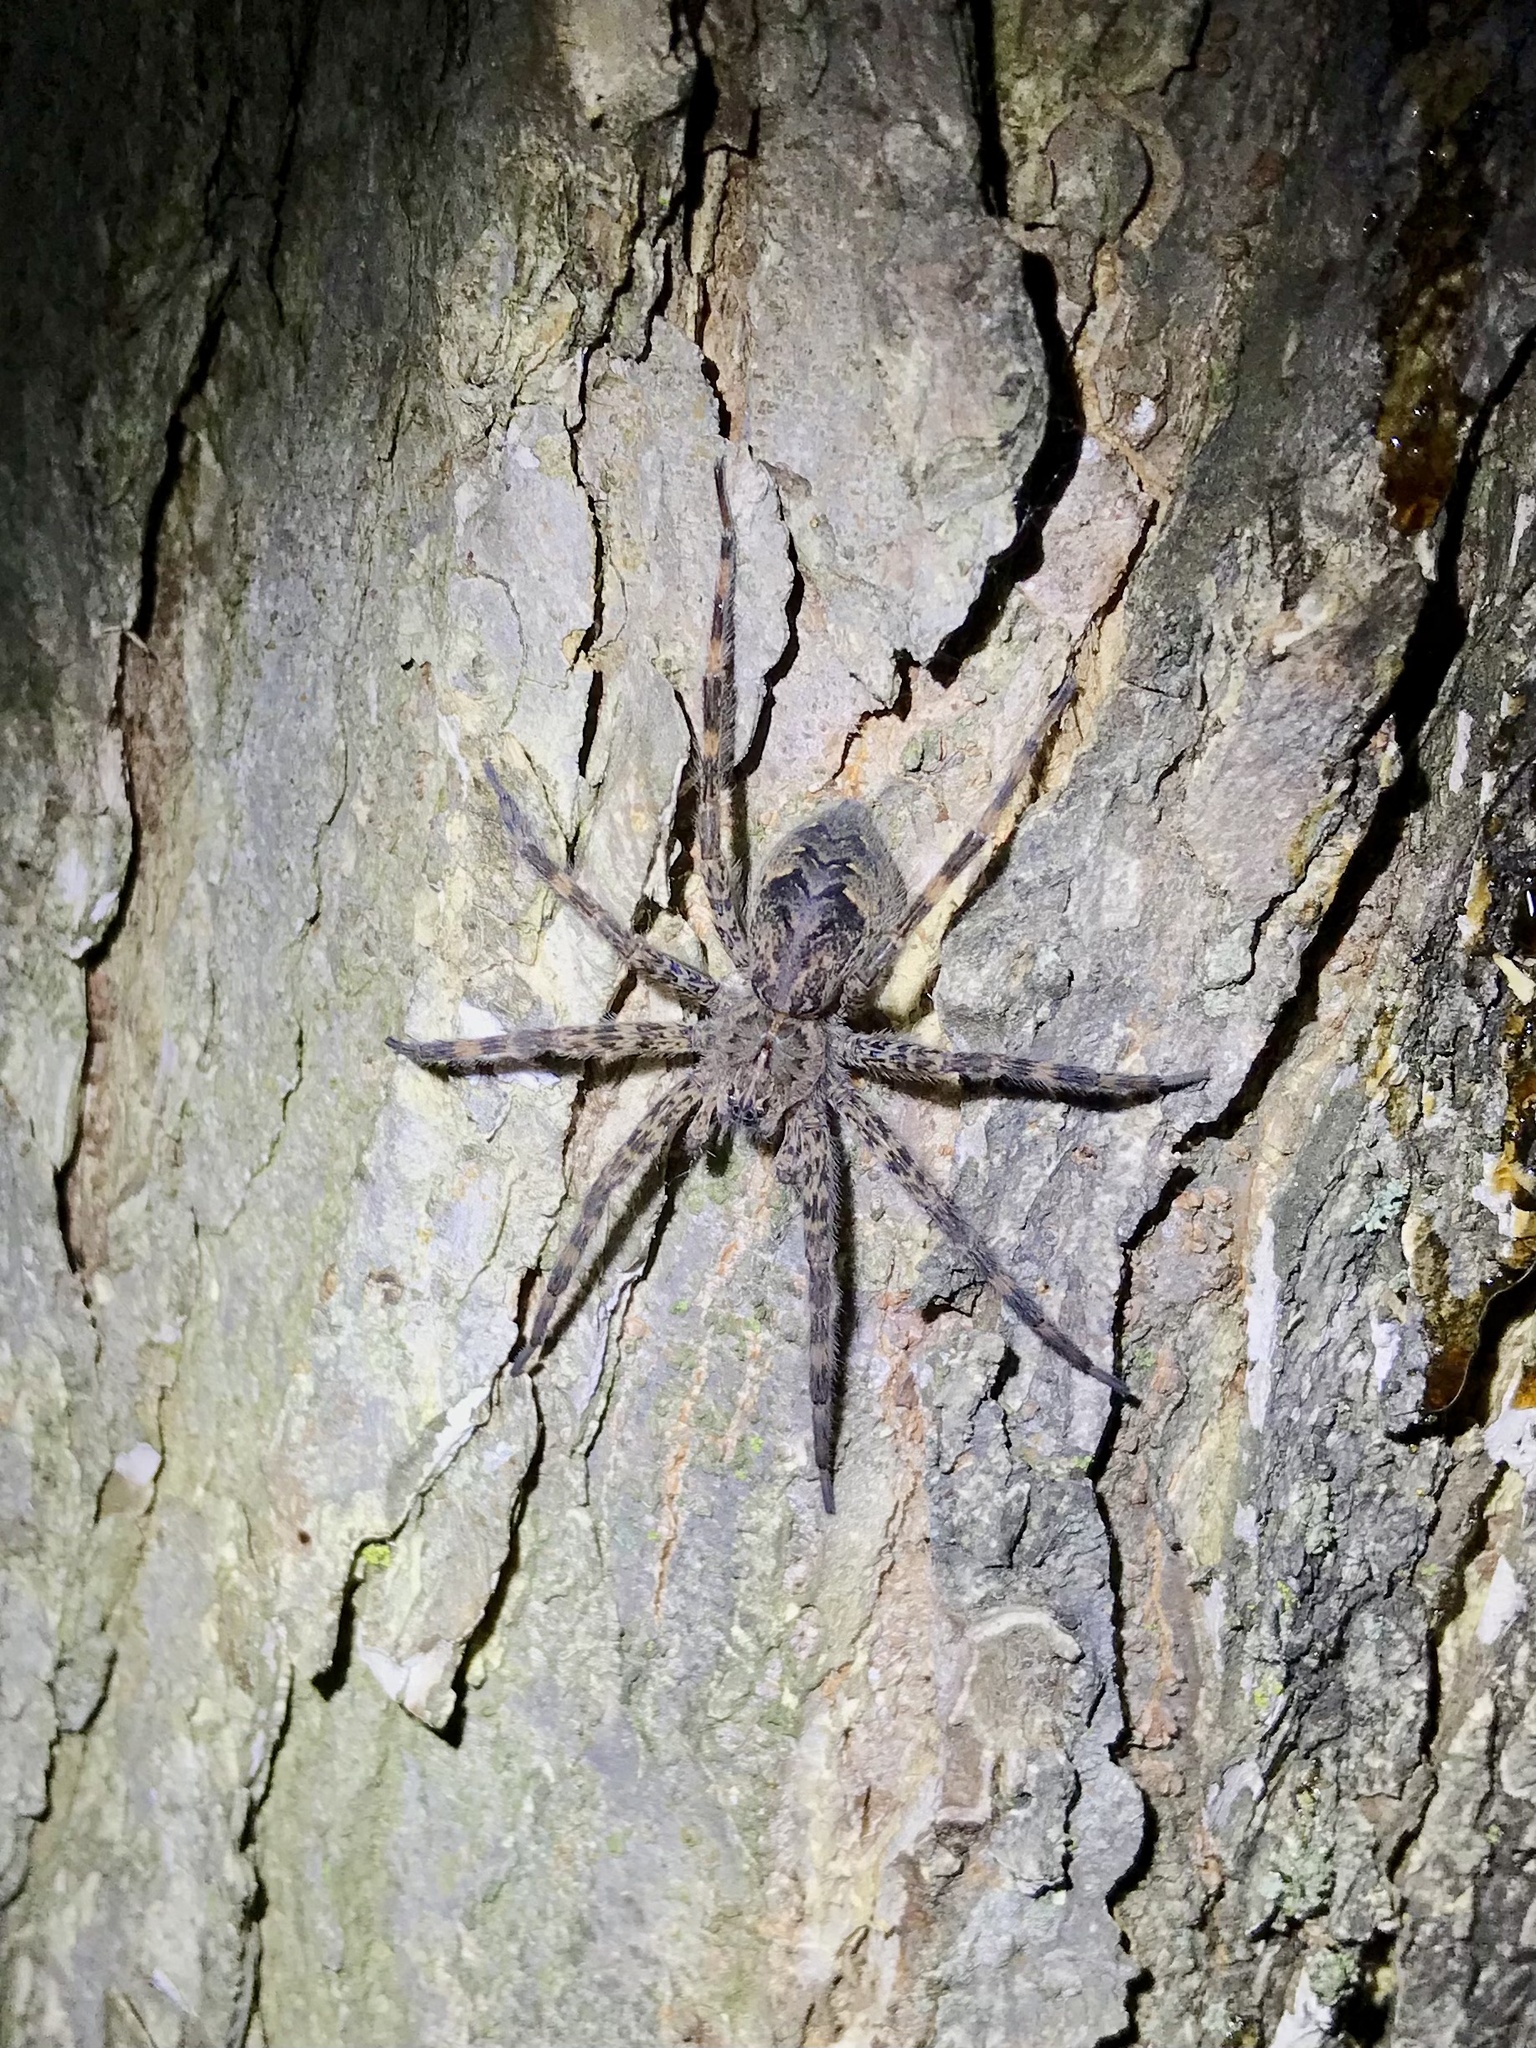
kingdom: Animalia
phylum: Arthropoda
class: Arachnida
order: Araneae
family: Pisauridae
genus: Dolomedes
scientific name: Dolomedes tenebrosus
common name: Dark fishing spider
